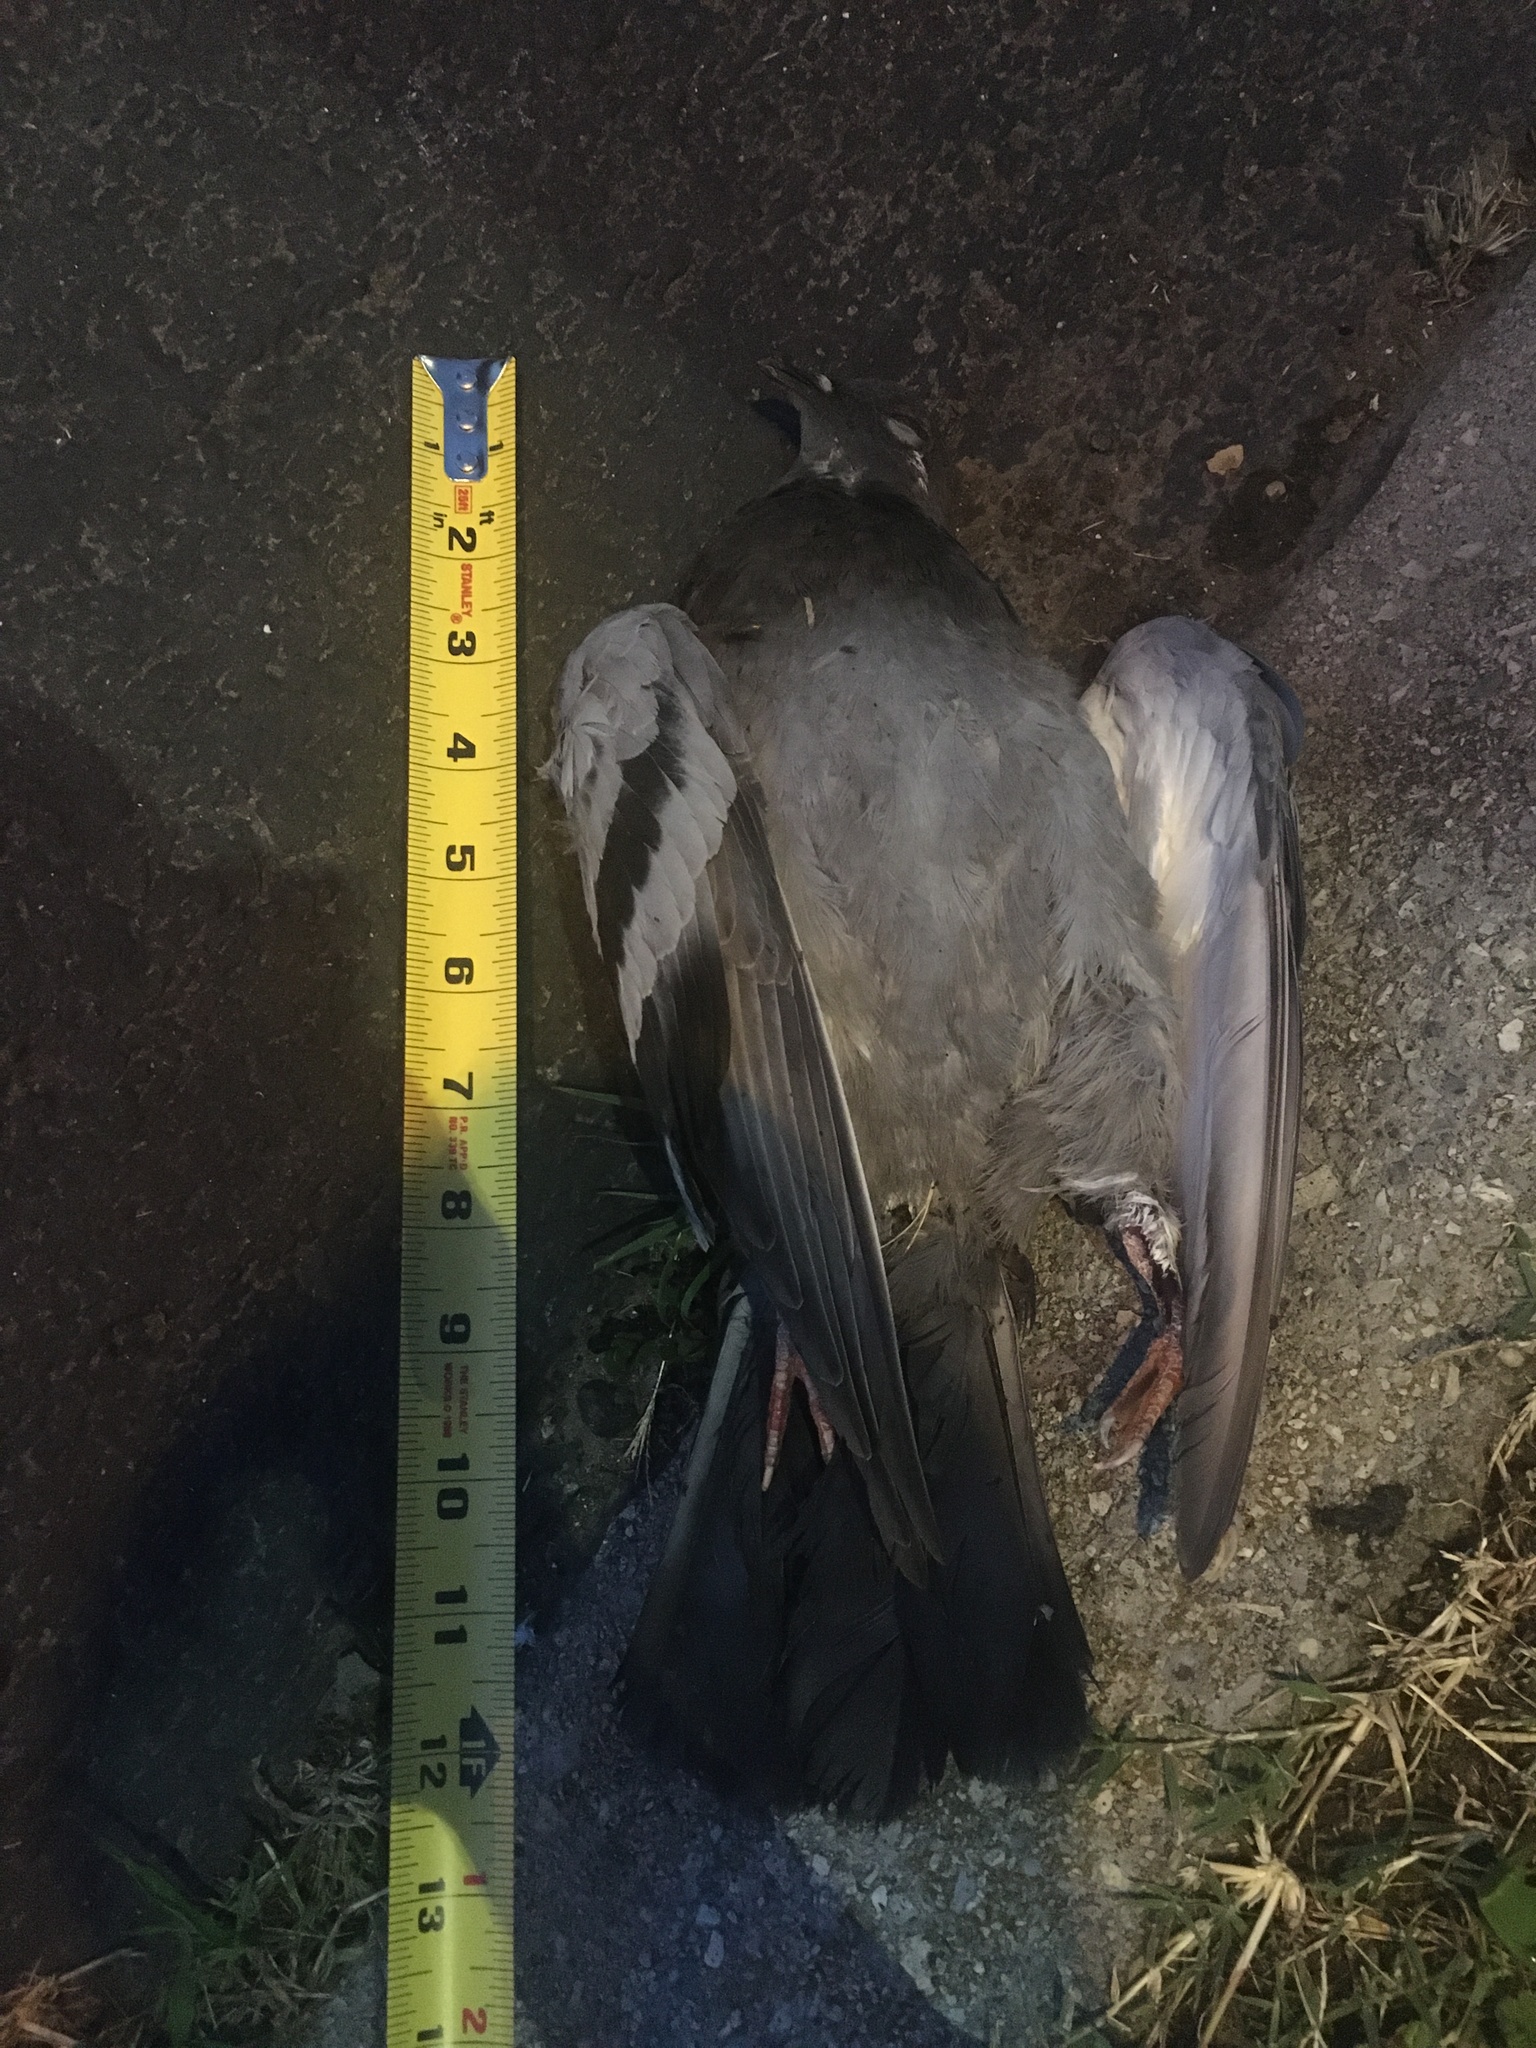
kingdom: Animalia
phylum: Chordata
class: Aves
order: Columbiformes
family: Columbidae
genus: Columba
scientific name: Columba livia
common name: Rock pigeon
